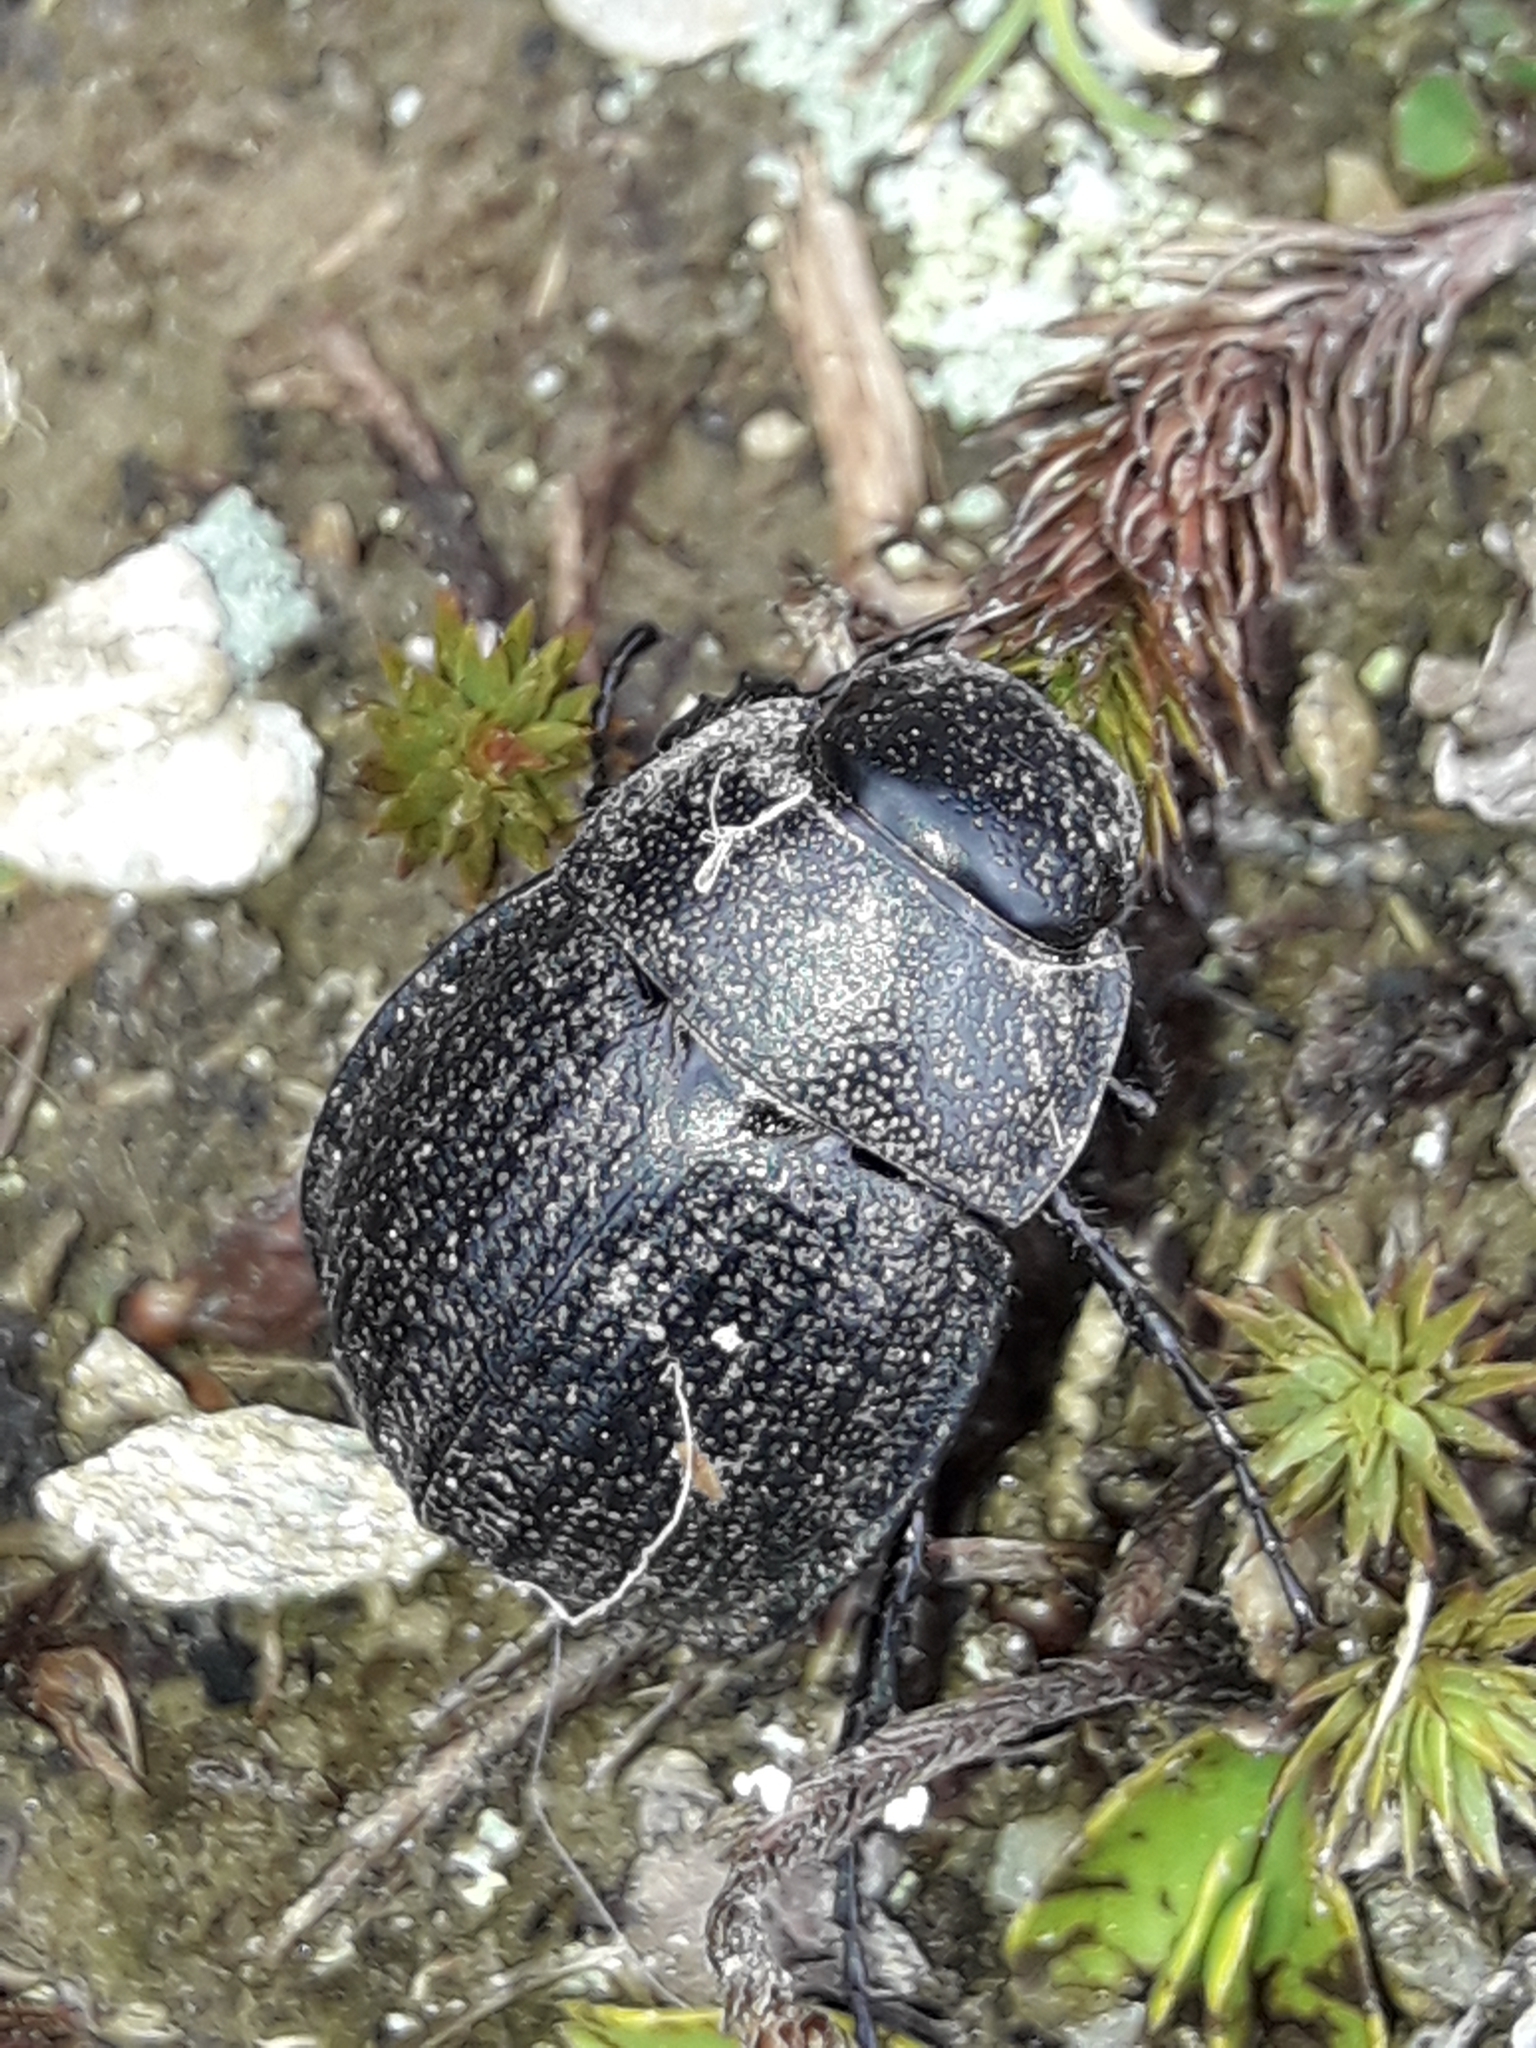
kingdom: Animalia
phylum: Arthropoda
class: Insecta
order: Coleoptera
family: Scarabaeidae
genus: Scythrodes
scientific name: Scythrodes squalidus
